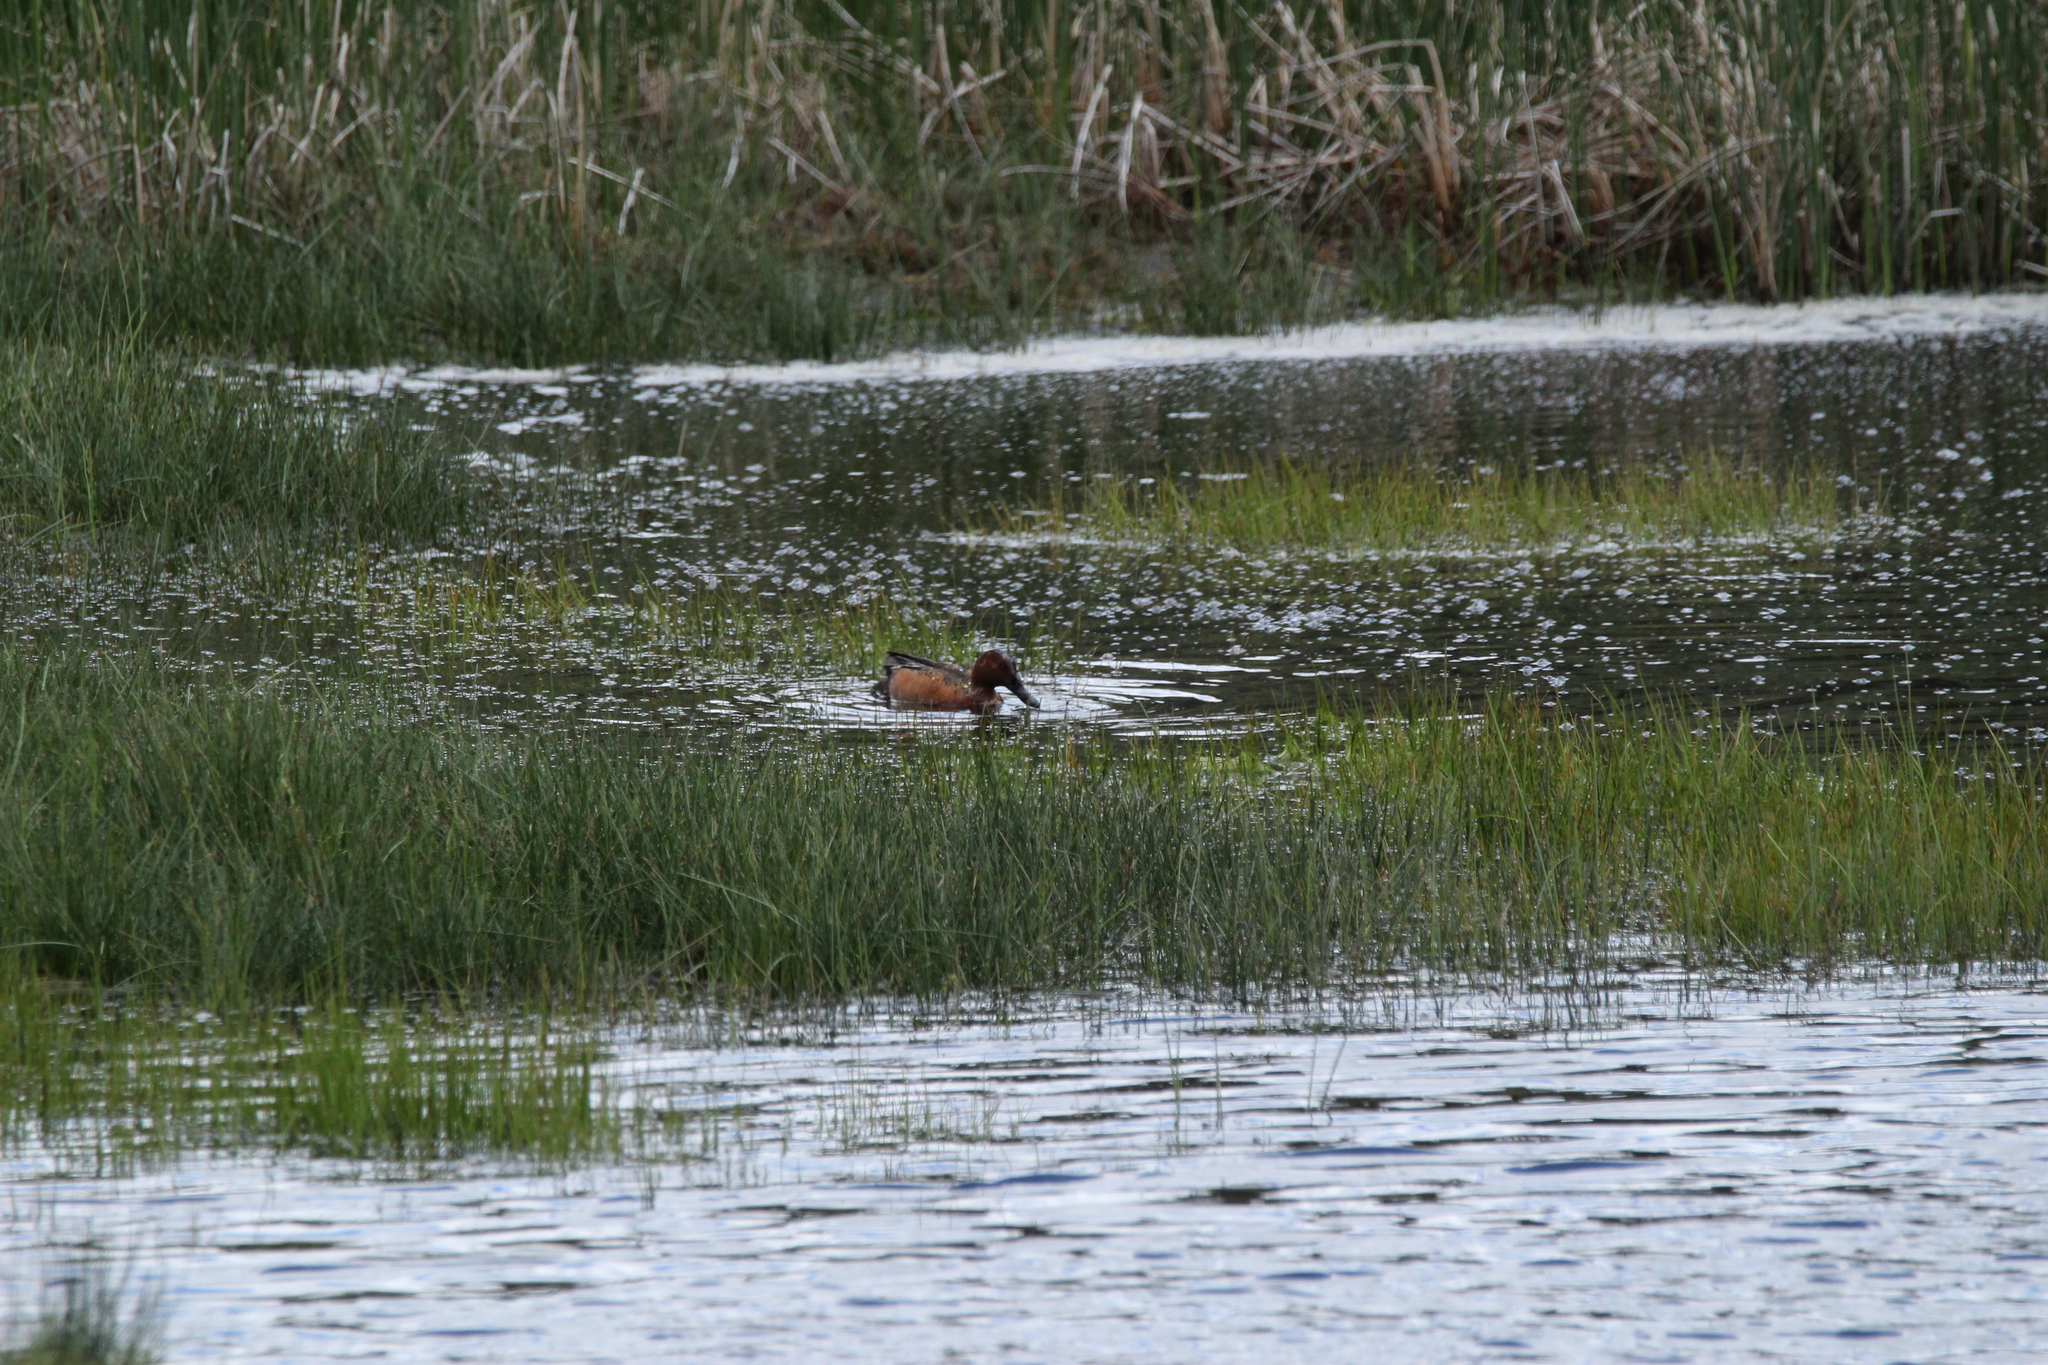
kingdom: Animalia
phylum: Chordata
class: Aves
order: Anseriformes
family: Anatidae
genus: Spatula
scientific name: Spatula cyanoptera
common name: Cinnamon teal
